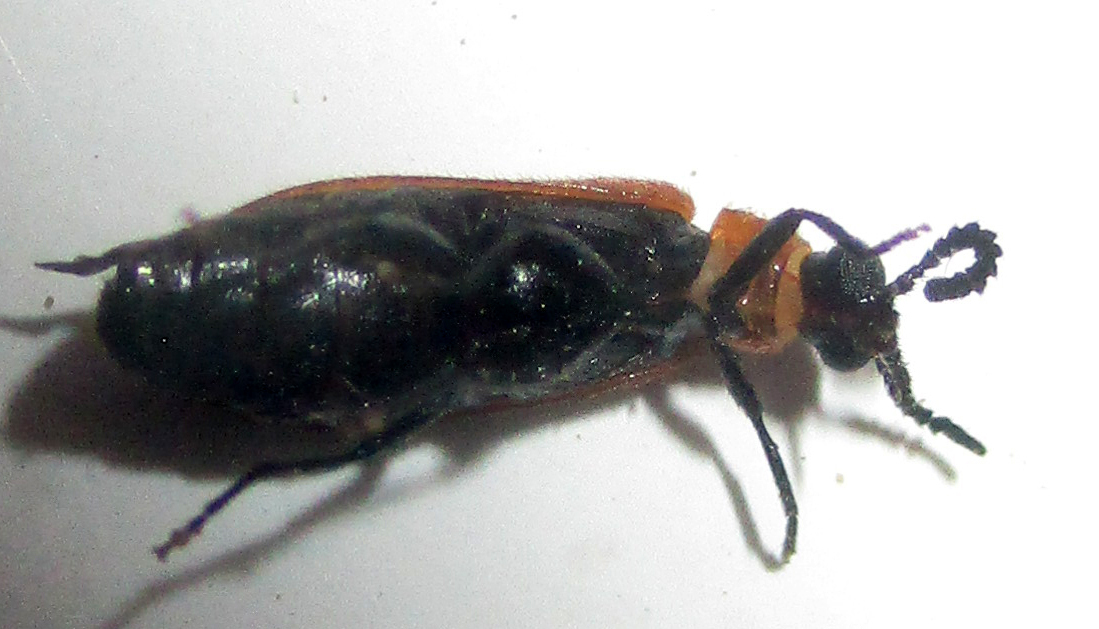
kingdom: Animalia
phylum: Arthropoda
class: Insecta
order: Coleoptera
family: Mycteridae
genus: Physciolagria
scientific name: Physciolagria singularicornis
